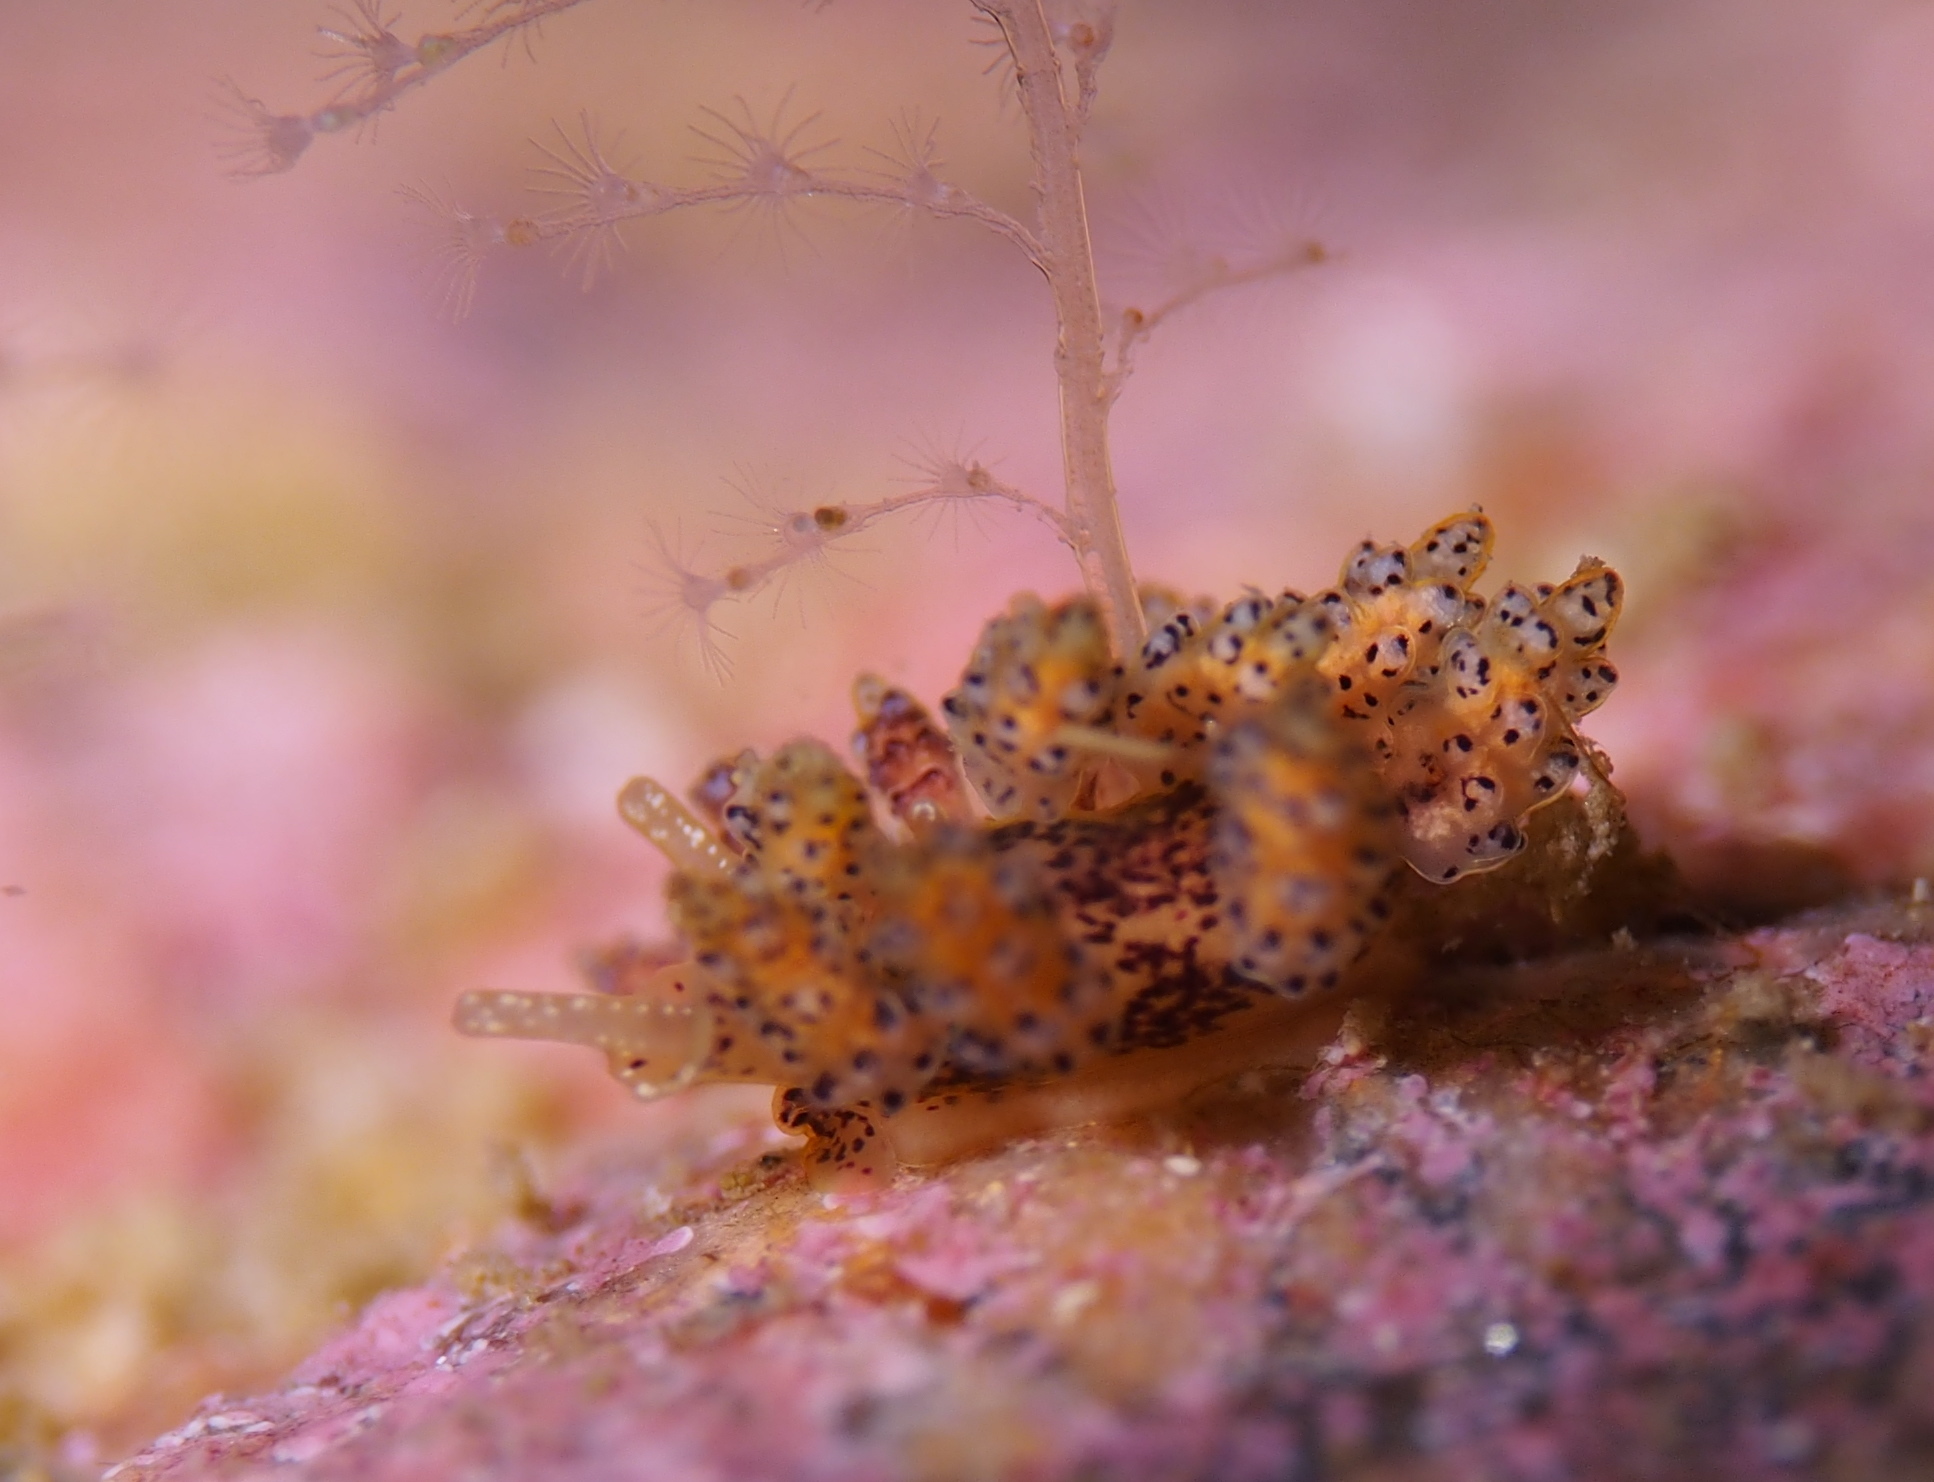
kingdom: Animalia
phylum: Mollusca
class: Gastropoda
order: Nudibranchia
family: Dotidae
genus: Doto
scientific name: Doto dunnei
